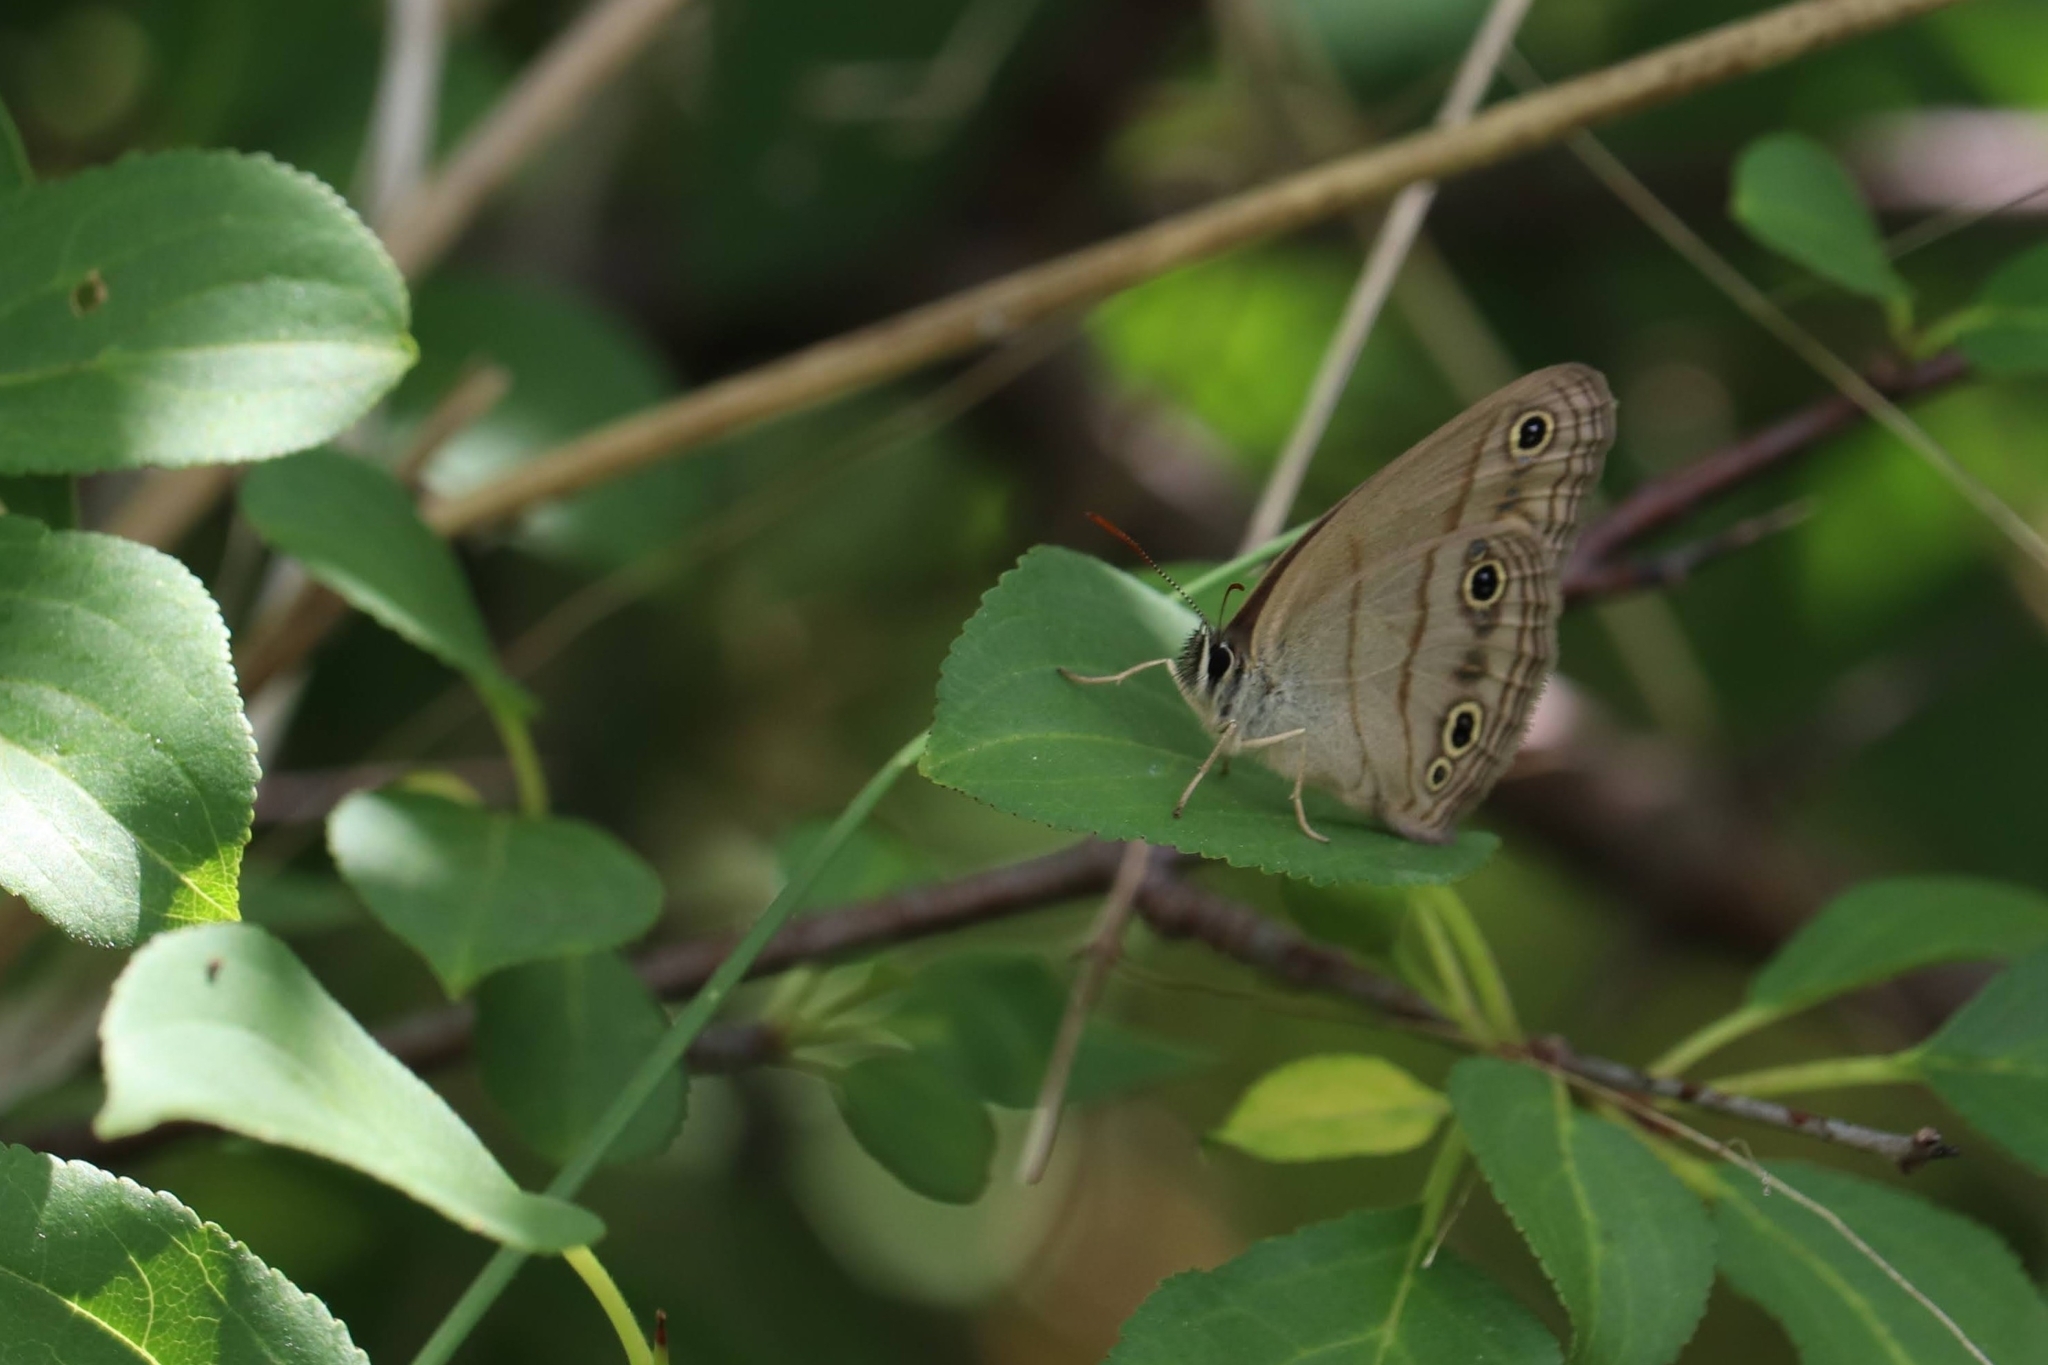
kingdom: Animalia
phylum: Arthropoda
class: Insecta
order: Lepidoptera
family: Nymphalidae
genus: Euptychia
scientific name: Euptychia cymela
